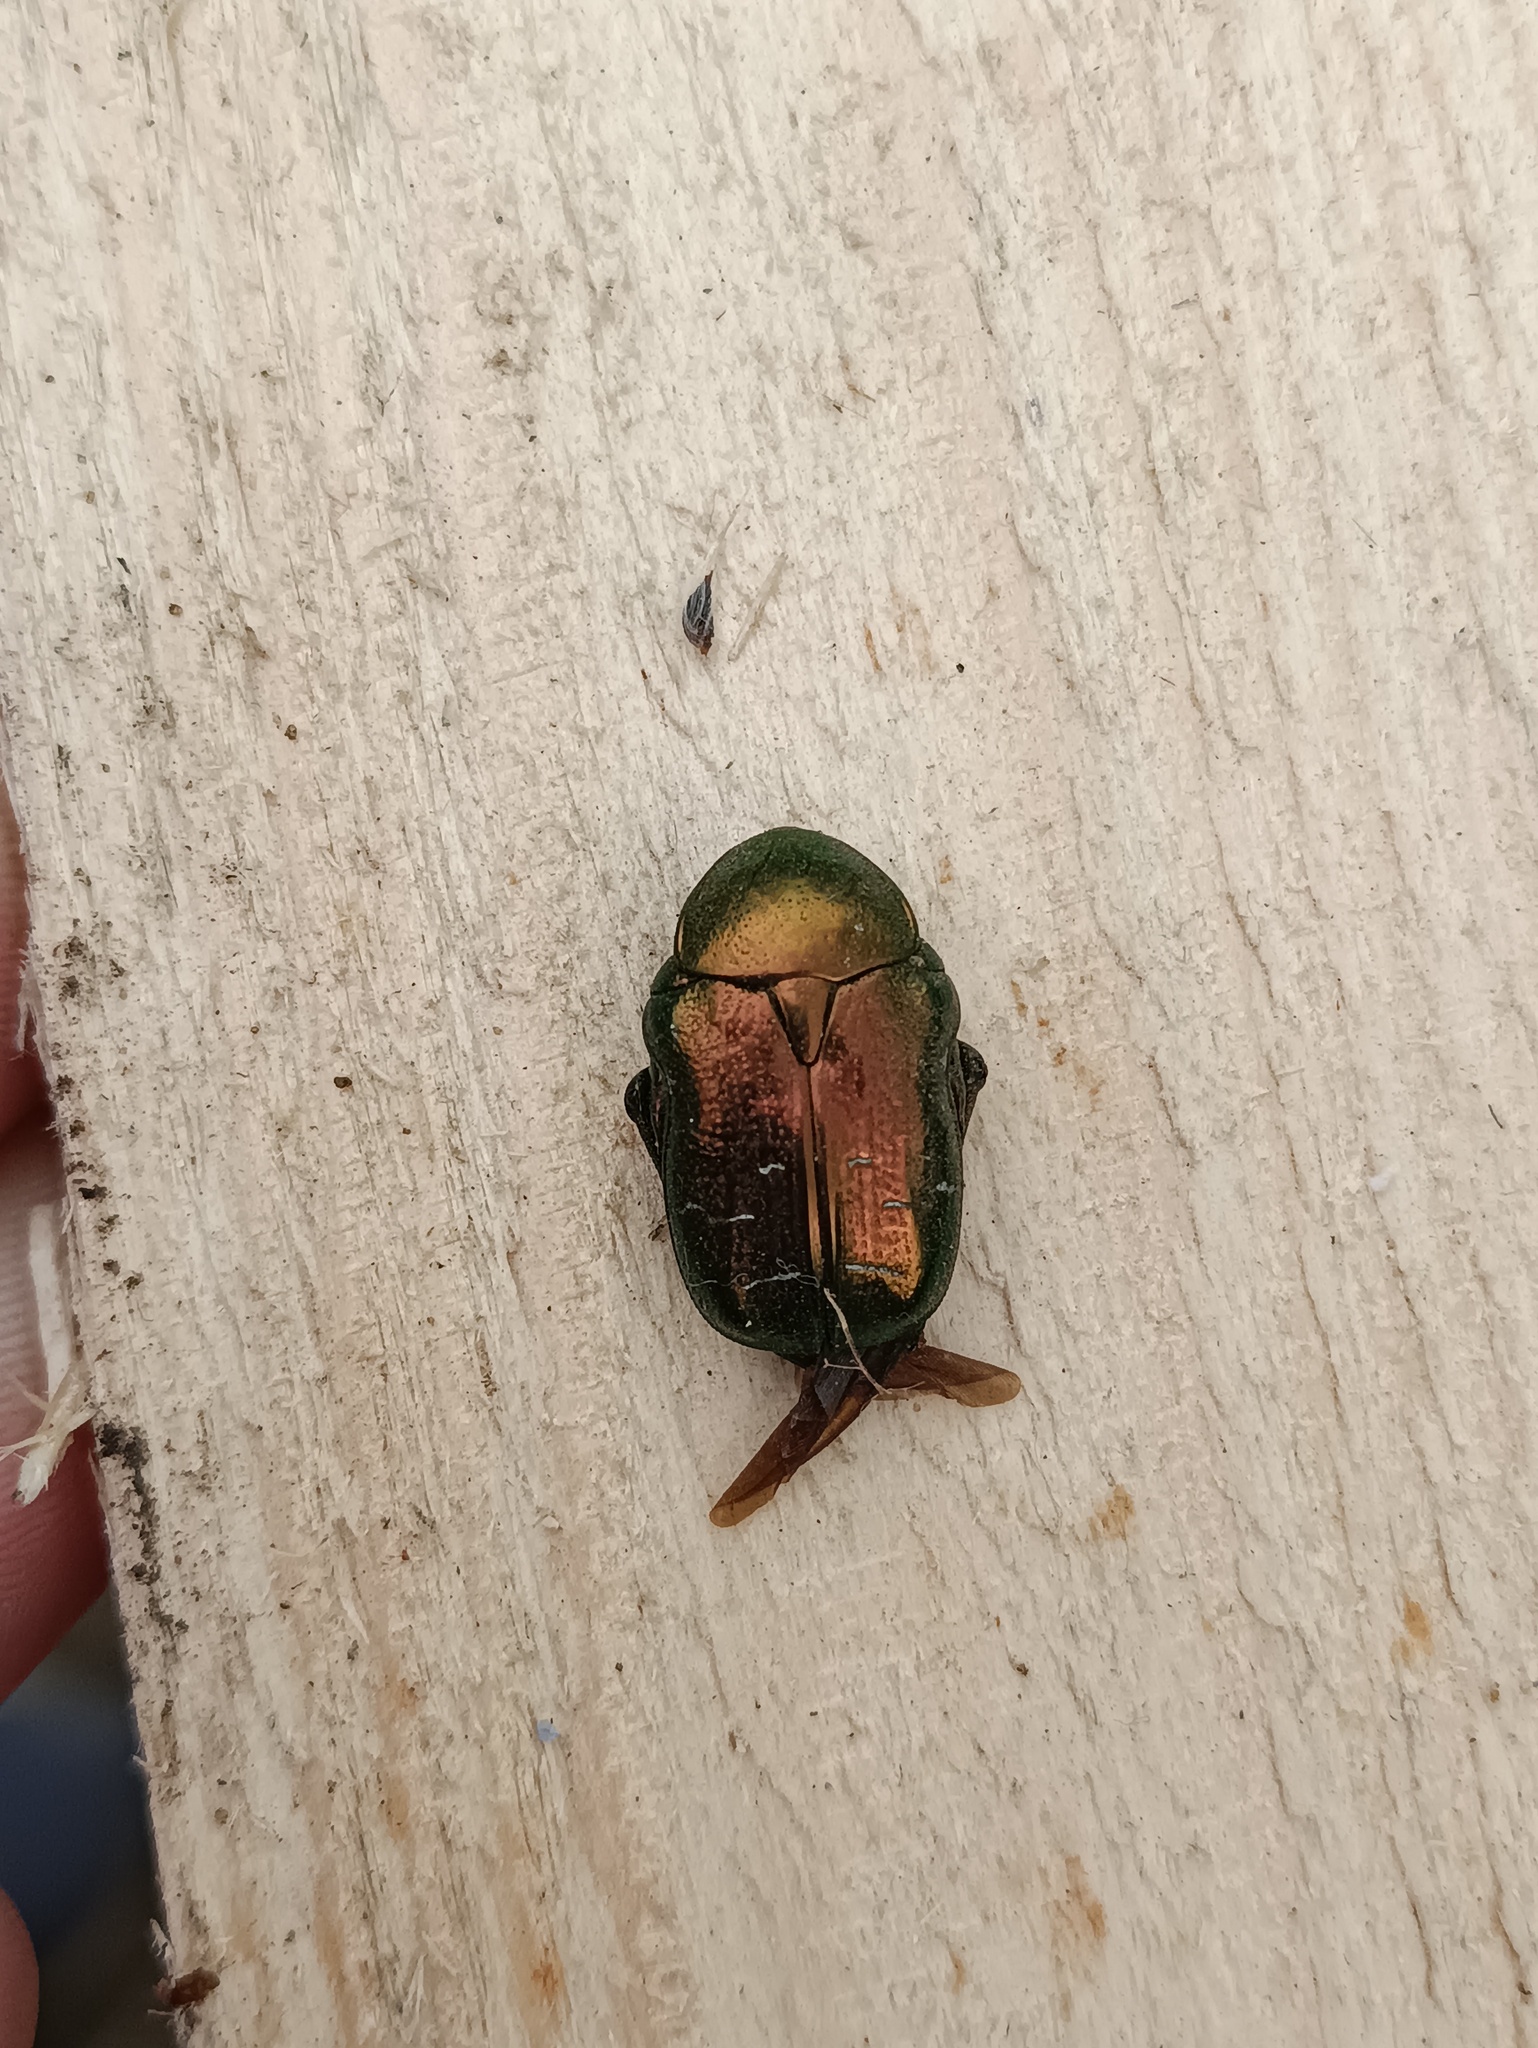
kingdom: Animalia
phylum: Arthropoda
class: Insecta
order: Coleoptera
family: Scarabaeidae
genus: Cetonia
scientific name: Cetonia aurata
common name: Rose chafer
